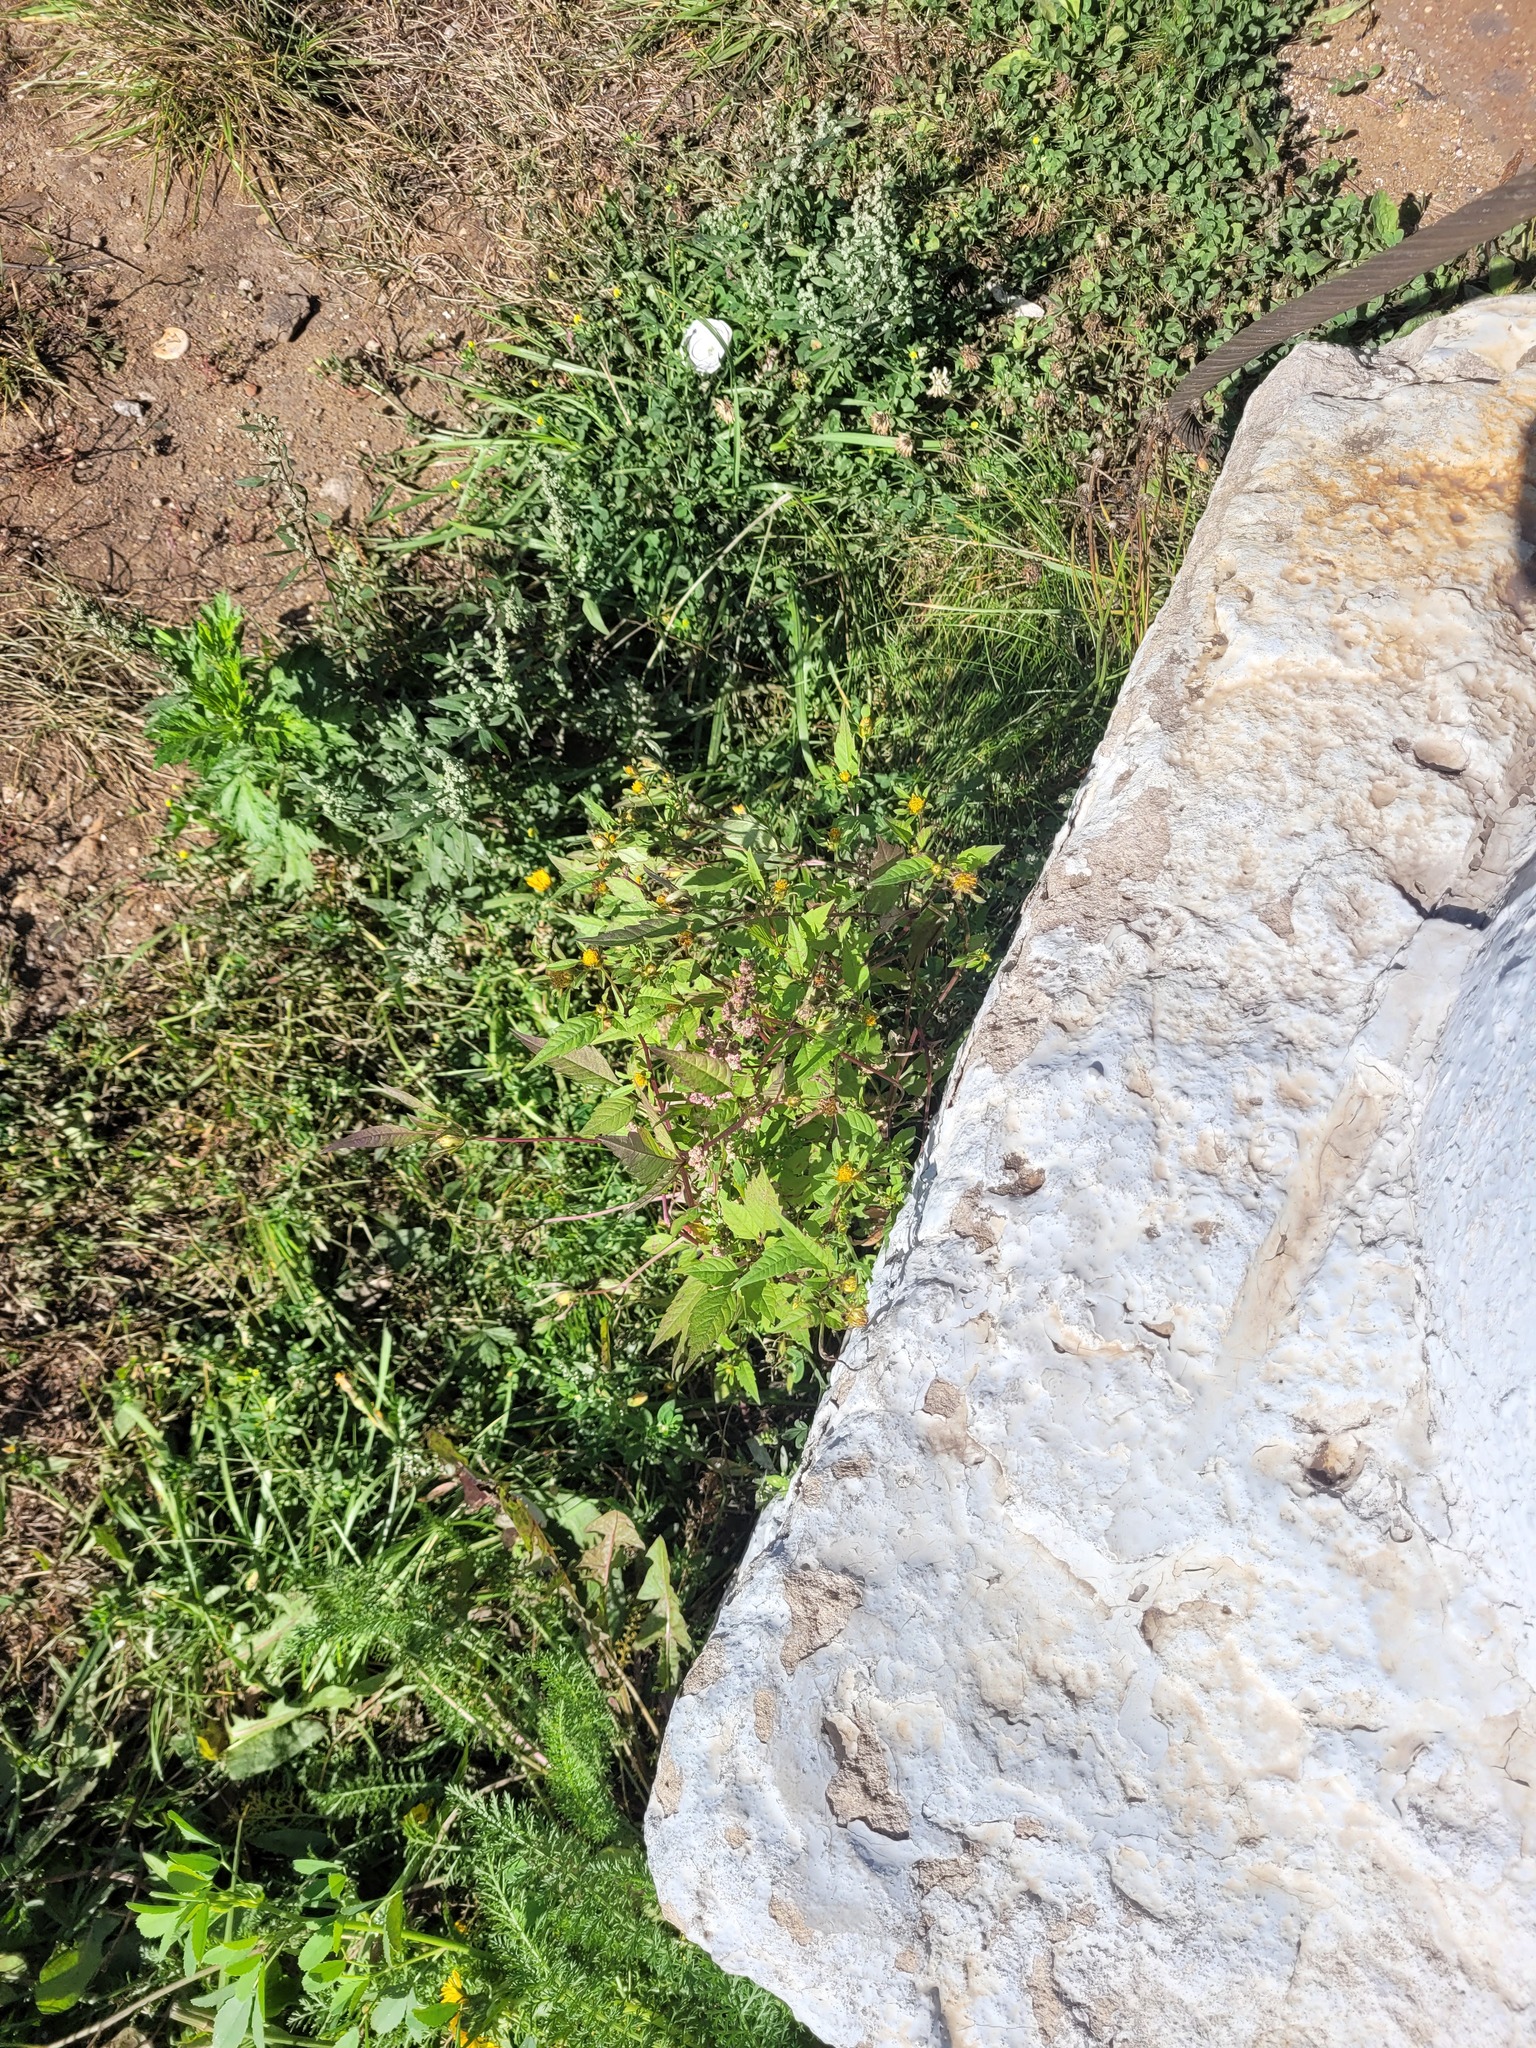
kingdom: Plantae
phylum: Tracheophyta
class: Magnoliopsida
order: Asterales
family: Asteraceae
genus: Bidens
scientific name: Bidens frondosa
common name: Beggarticks
